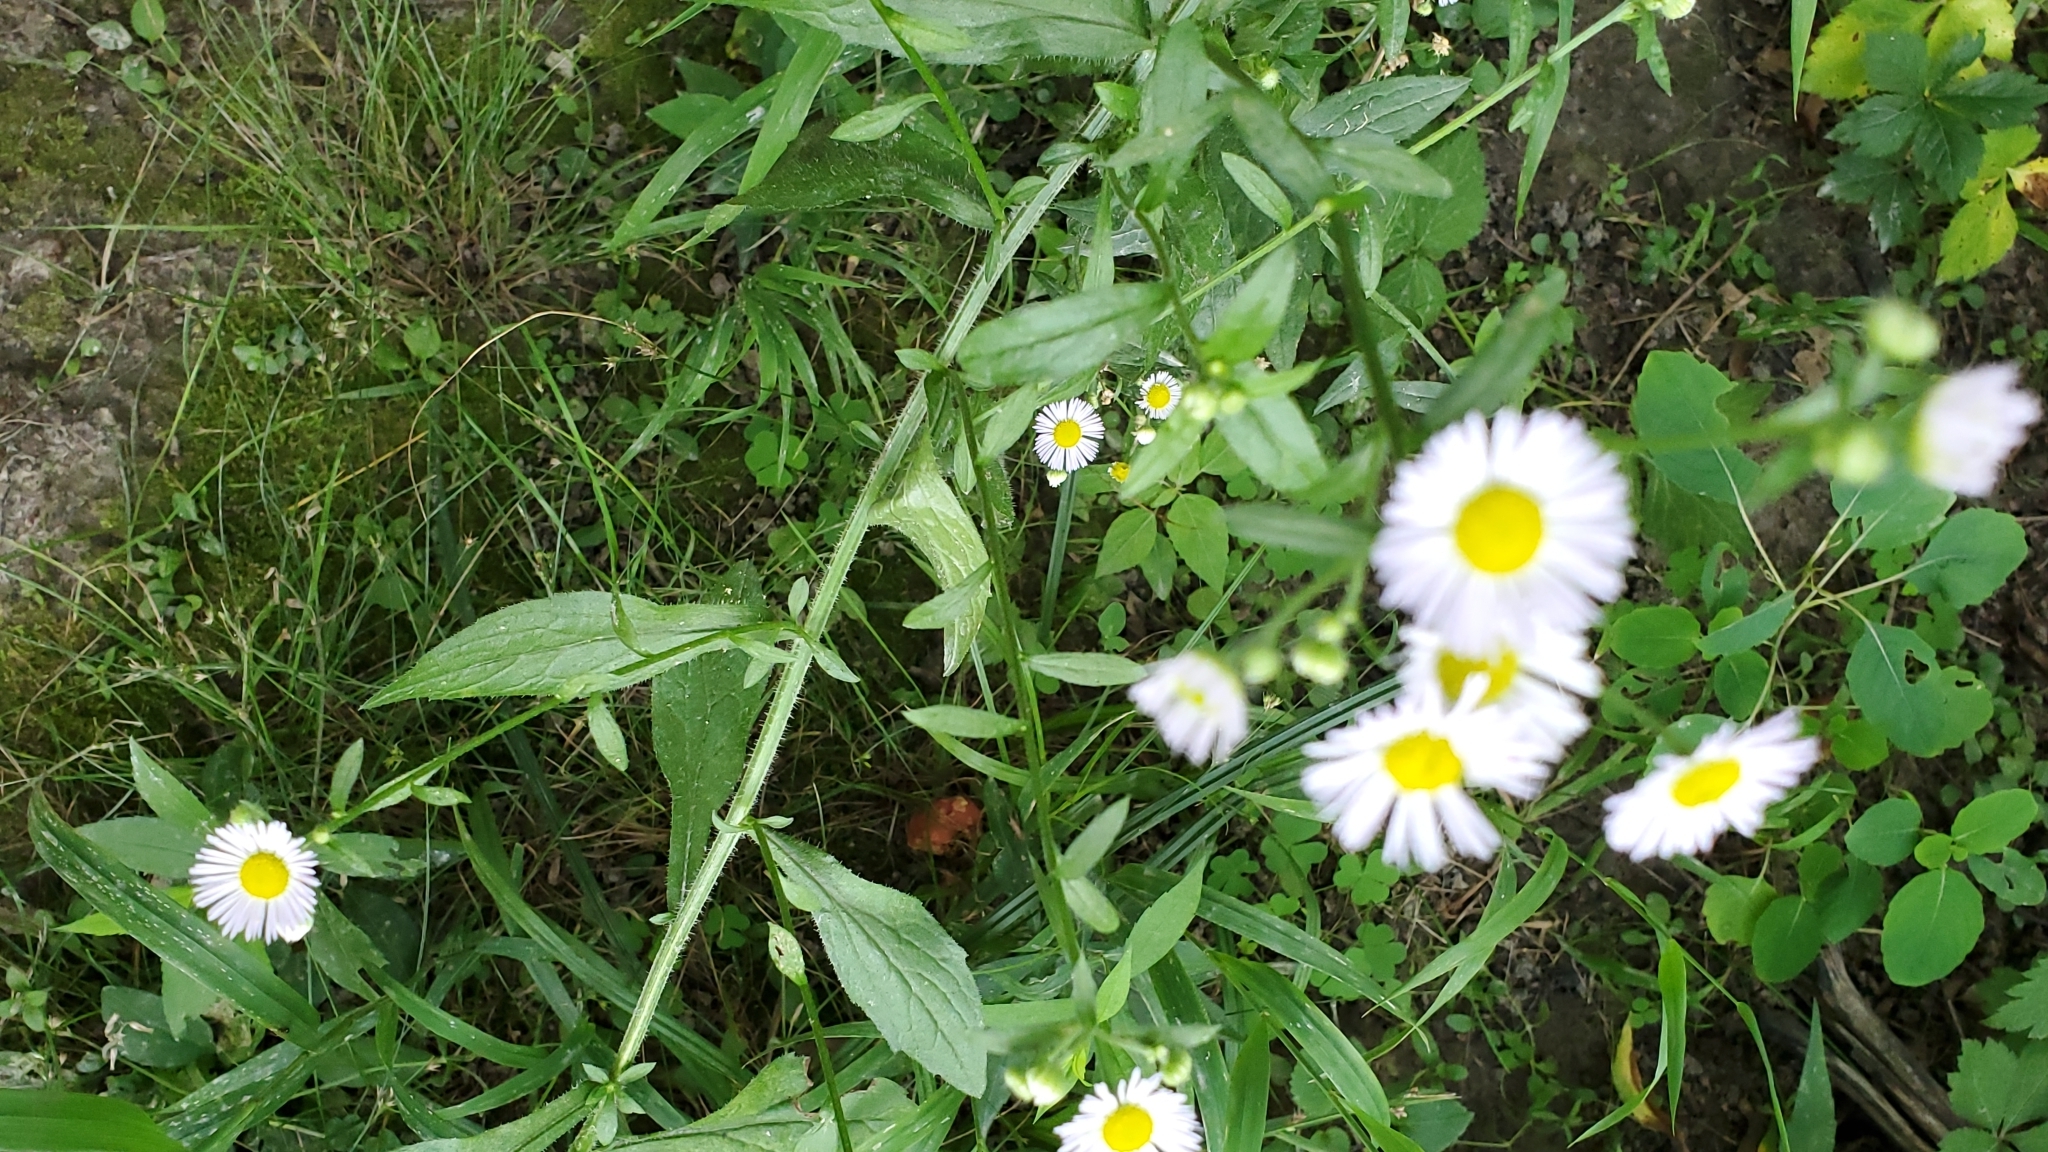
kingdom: Plantae
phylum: Tracheophyta
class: Magnoliopsida
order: Asterales
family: Asteraceae
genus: Erigeron
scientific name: Erigeron annuus
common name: Tall fleabane
